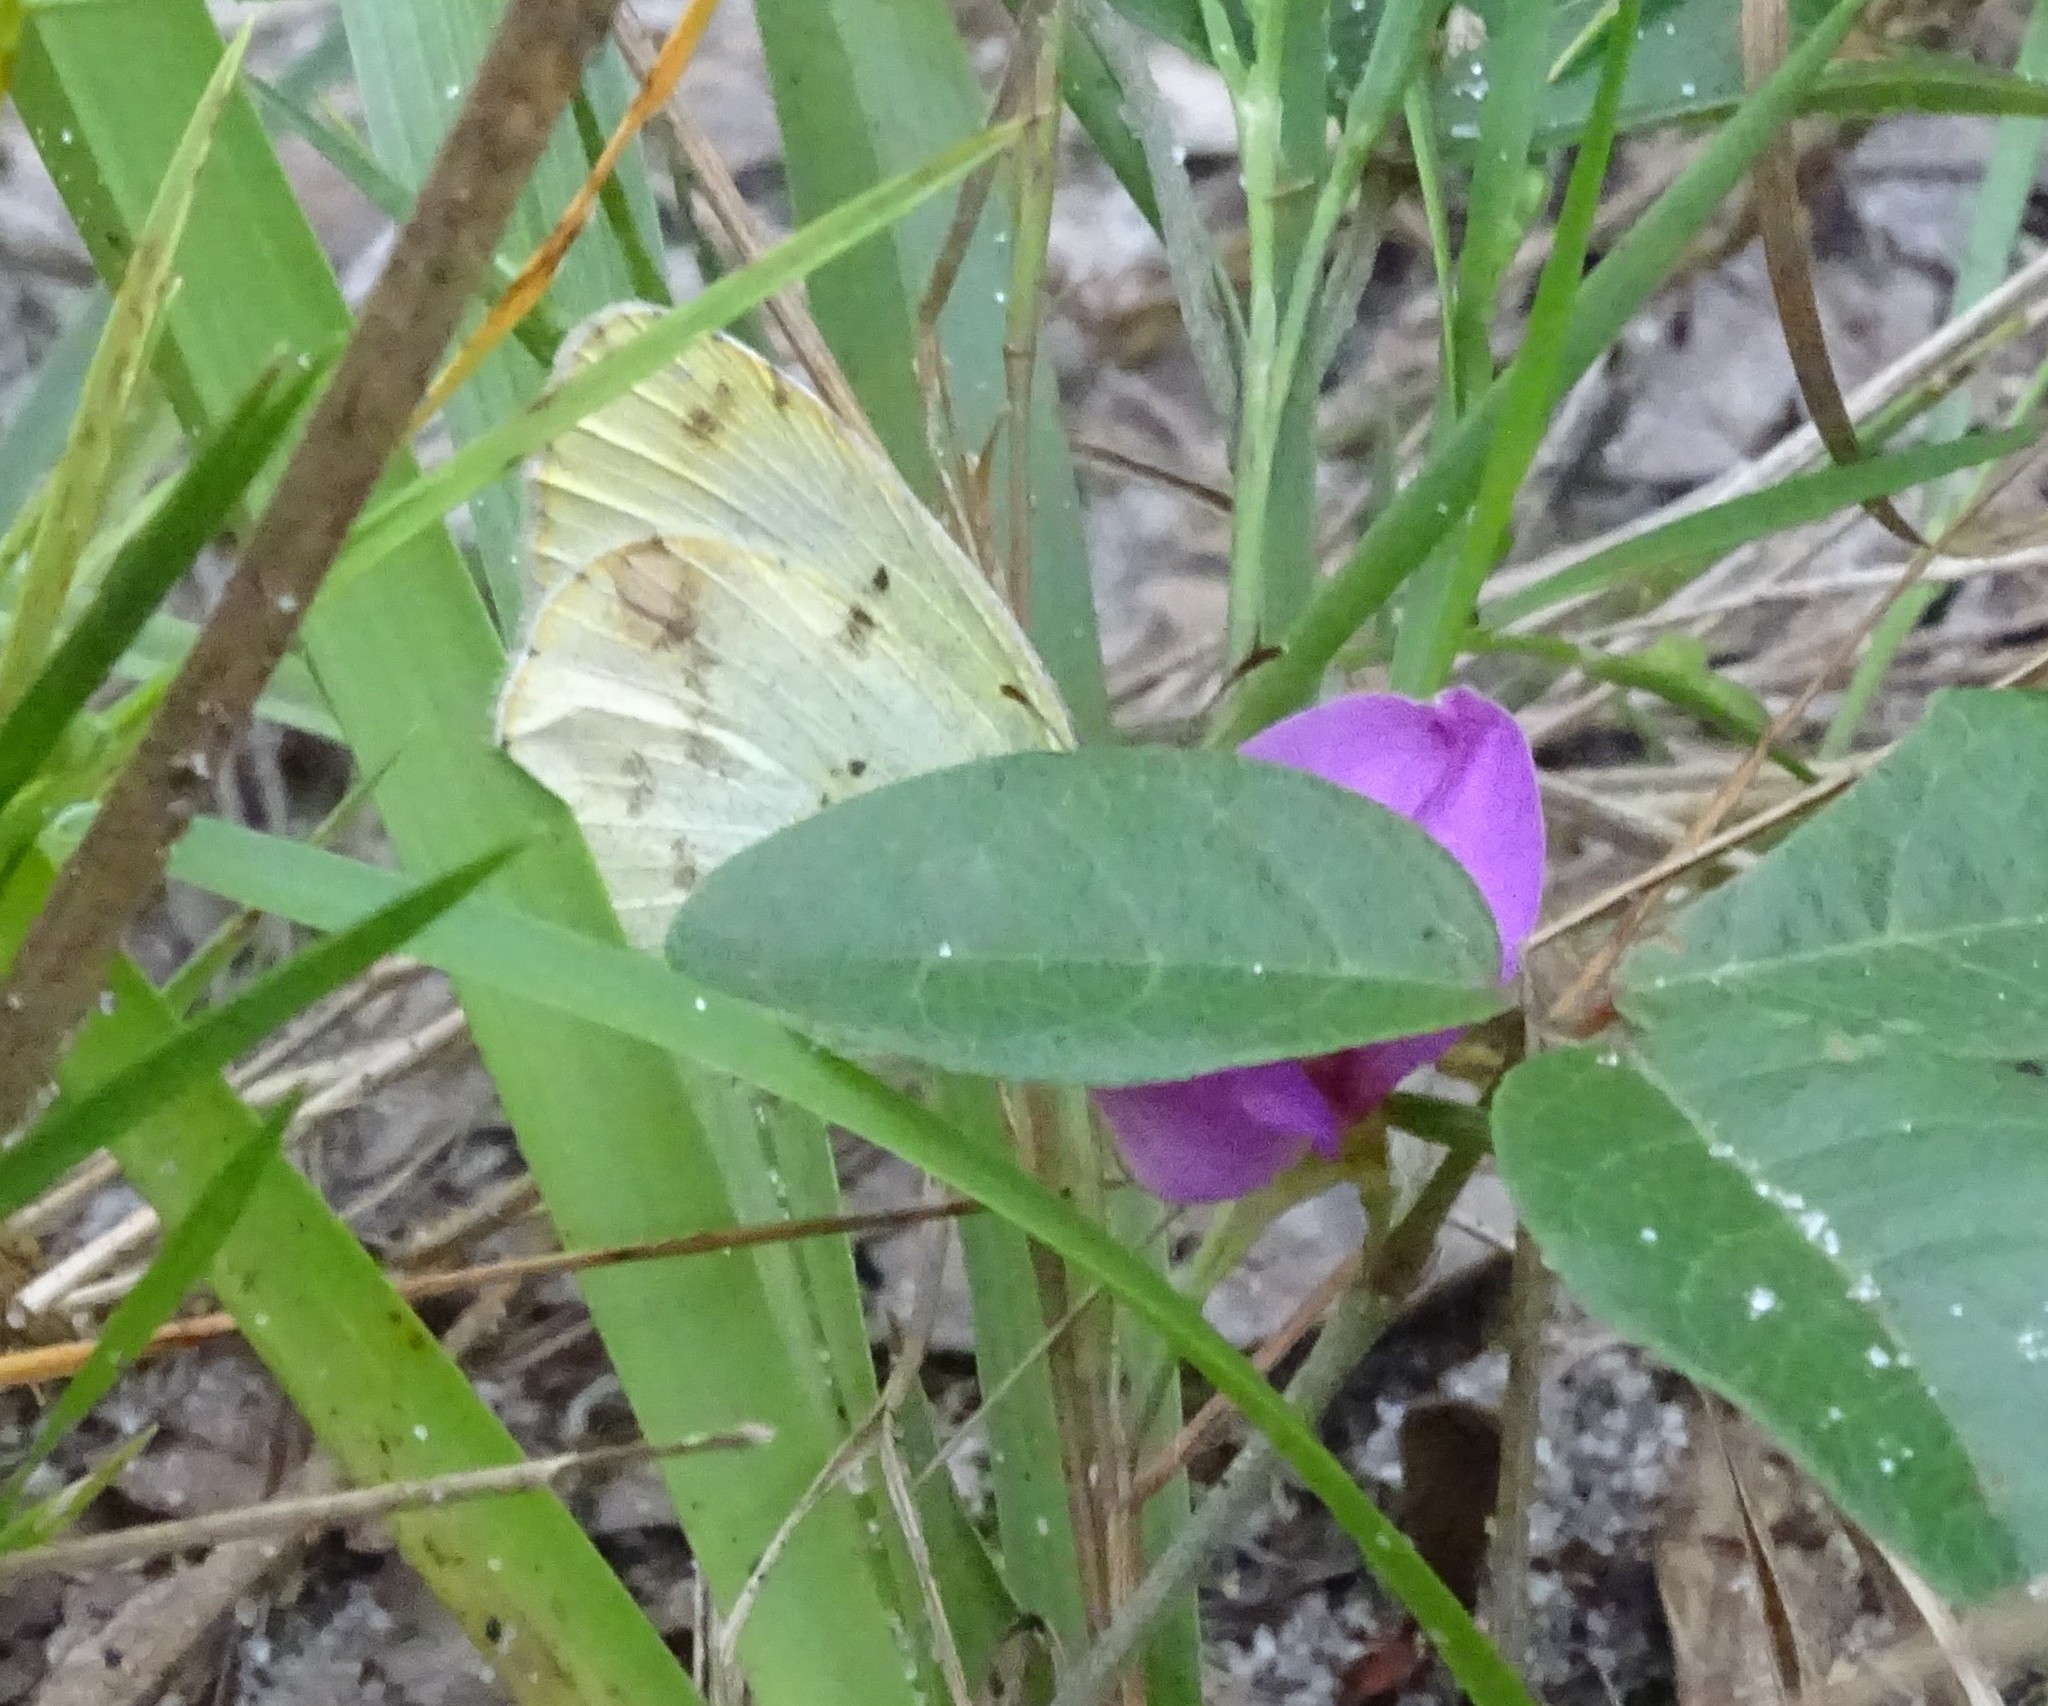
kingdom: Animalia
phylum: Arthropoda
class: Insecta
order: Lepidoptera
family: Pieridae
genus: Pyrisitia
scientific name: Pyrisitia lisa
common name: Little yellow
